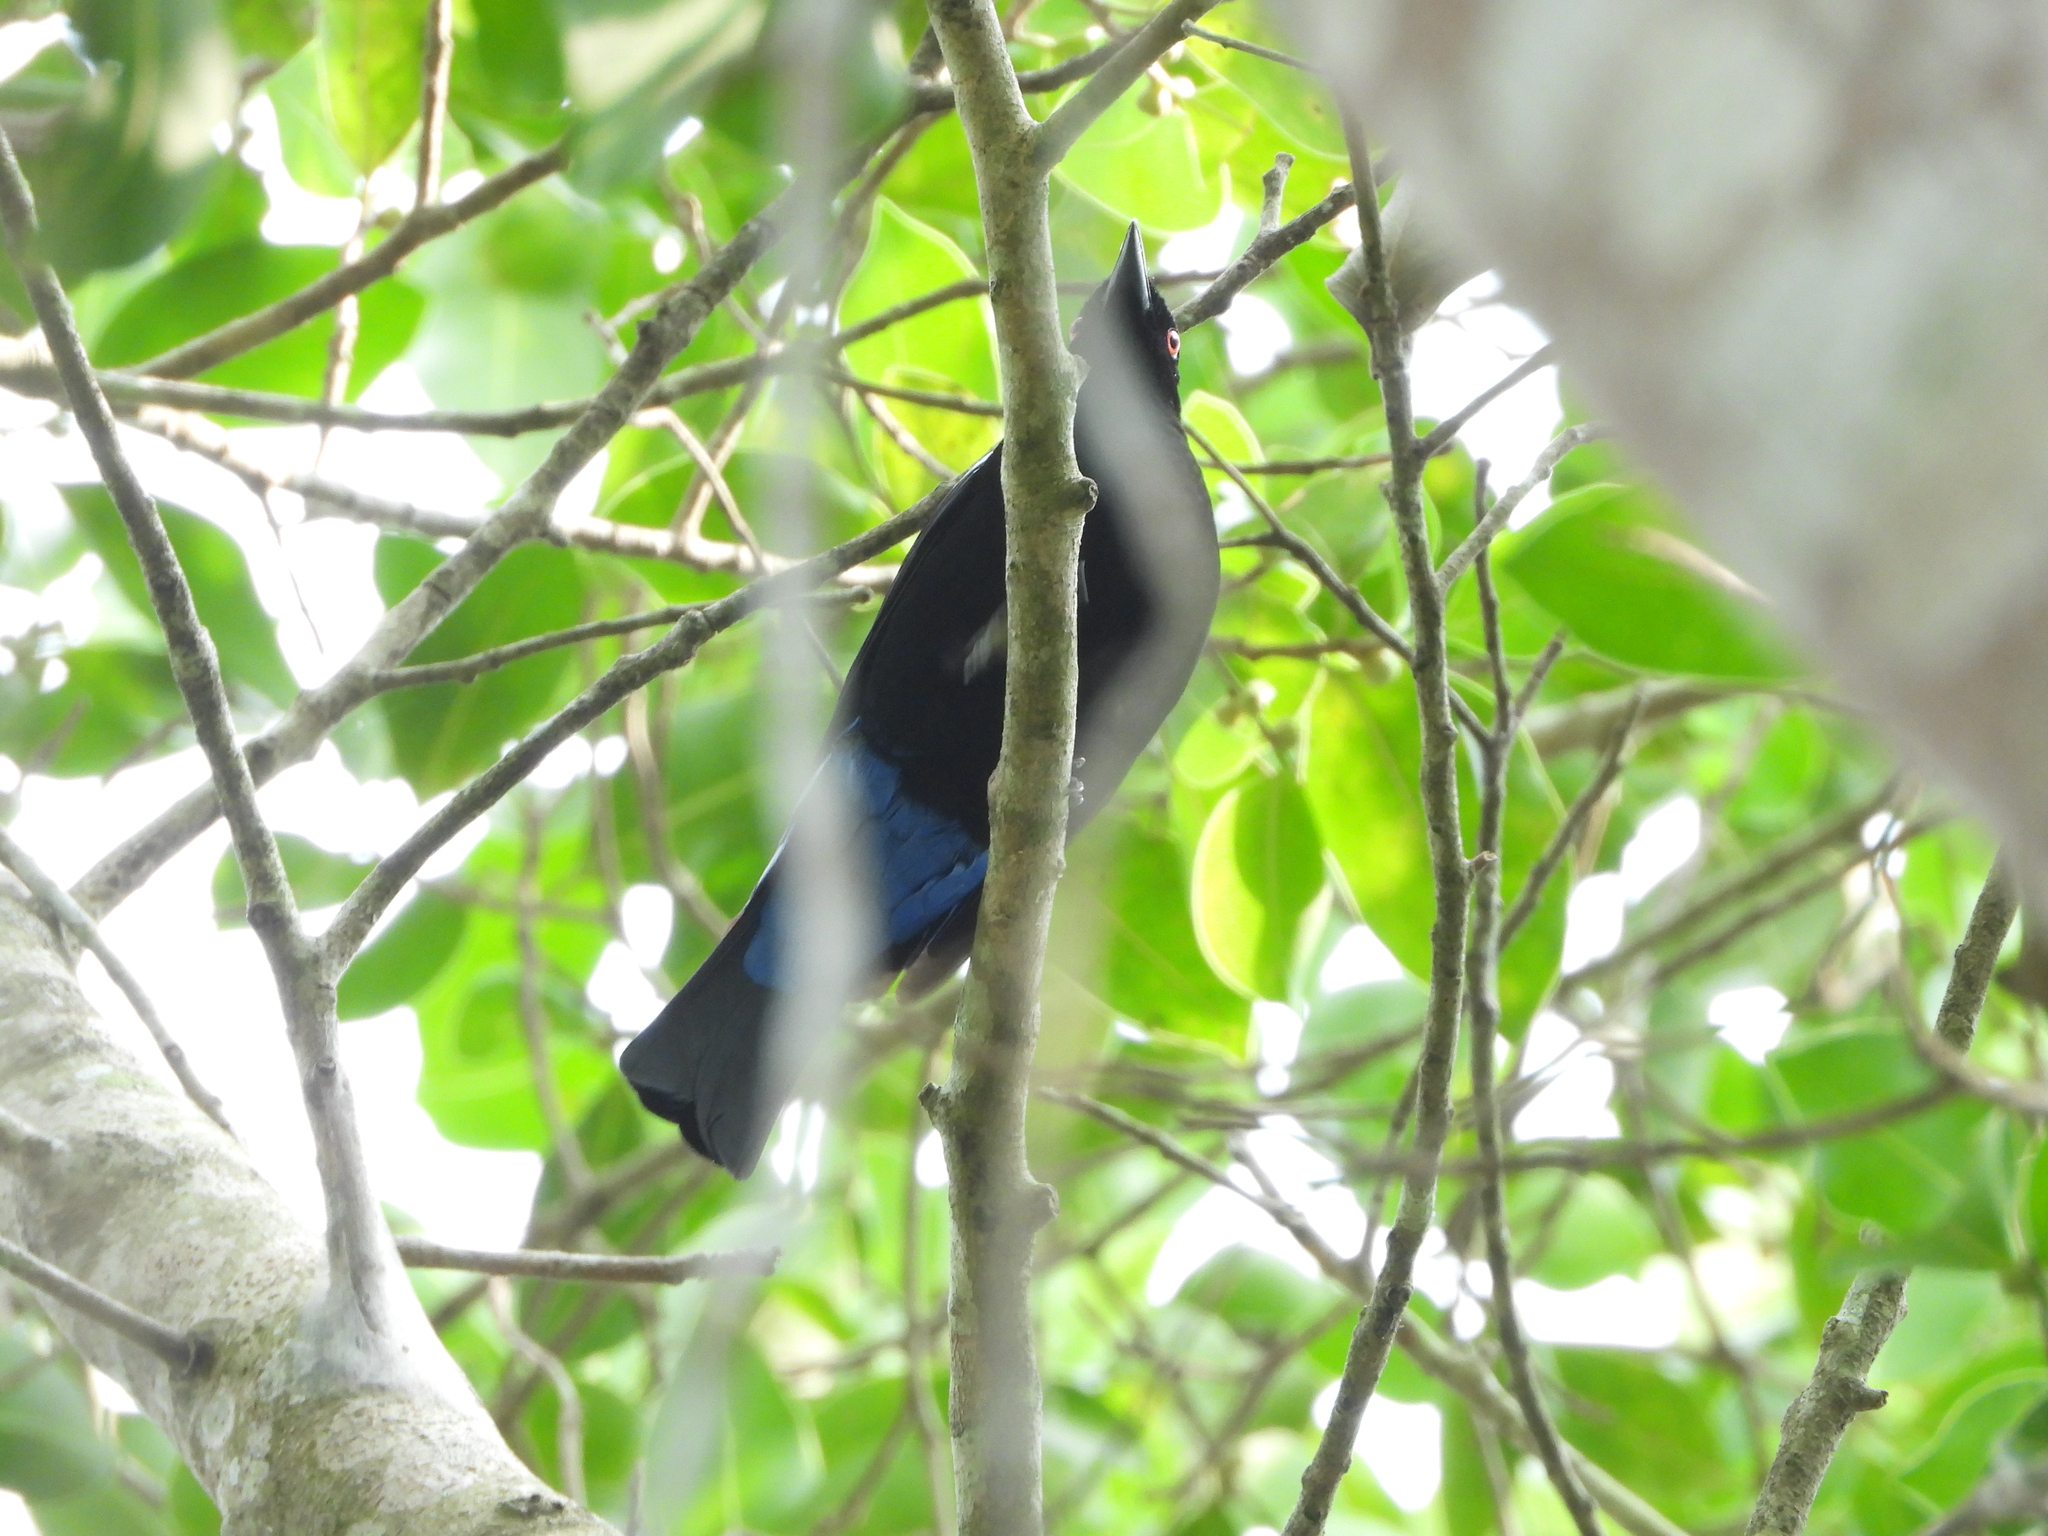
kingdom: Animalia
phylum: Chordata
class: Aves
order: Passeriformes
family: Irenidae
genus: Irena
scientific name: Irena puella
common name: Asian fairy-bluebird
